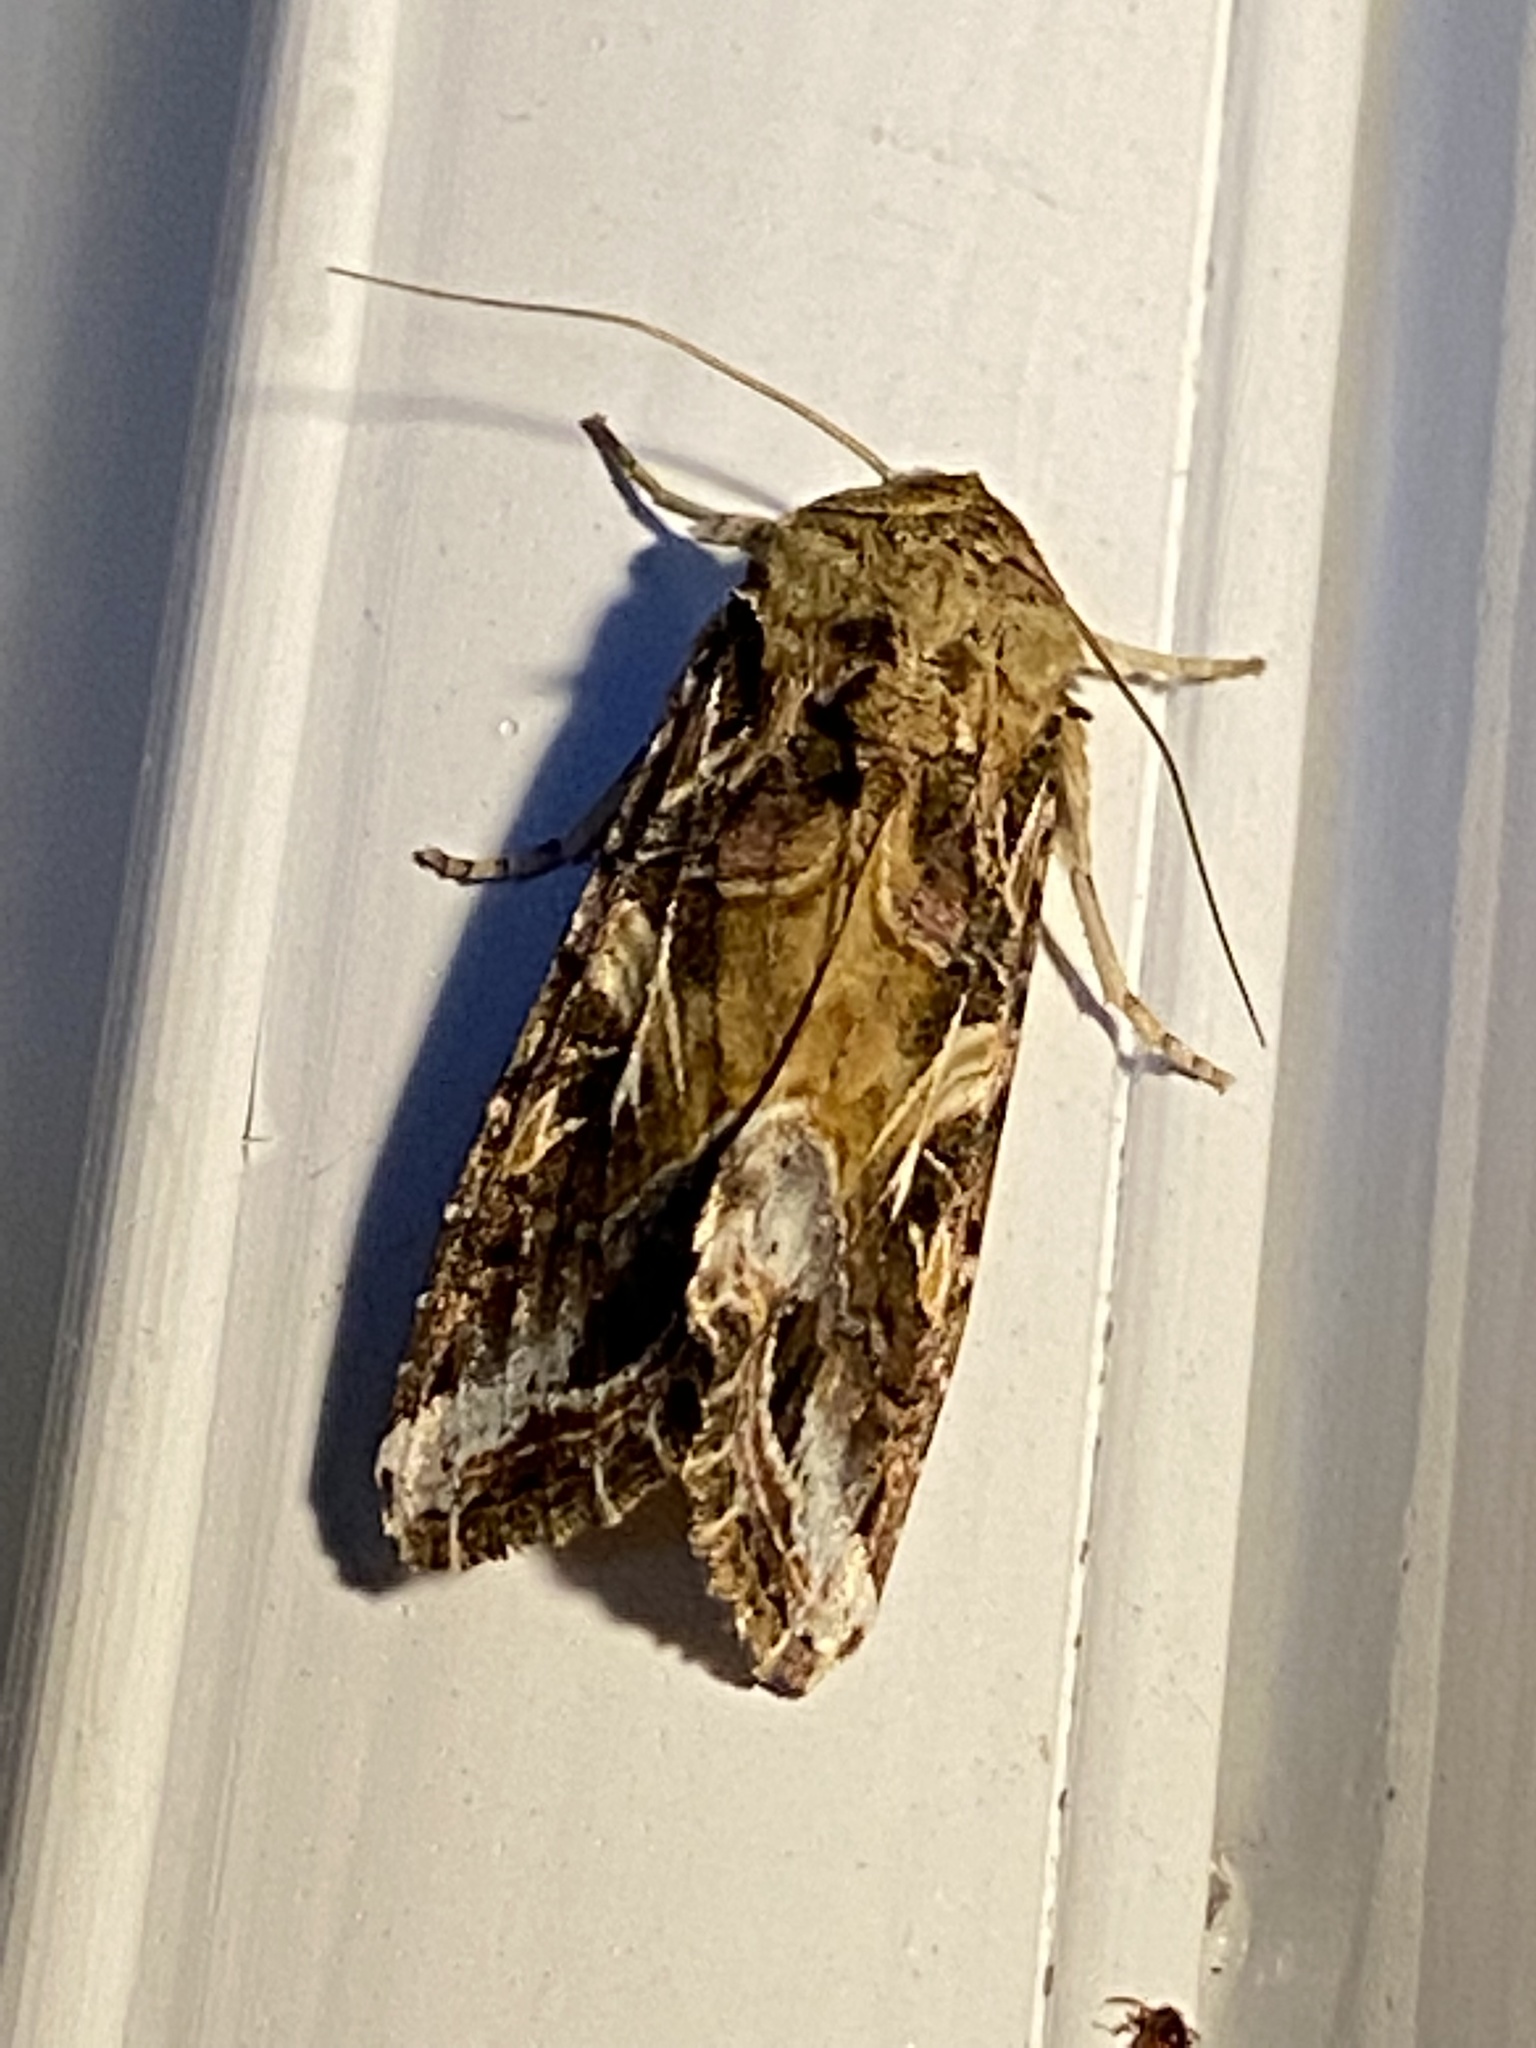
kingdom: Animalia
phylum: Arthropoda
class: Insecta
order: Lepidoptera
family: Noctuidae
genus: Spodoptera
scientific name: Spodoptera ornithogalli
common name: Yellow-striped armyworm
